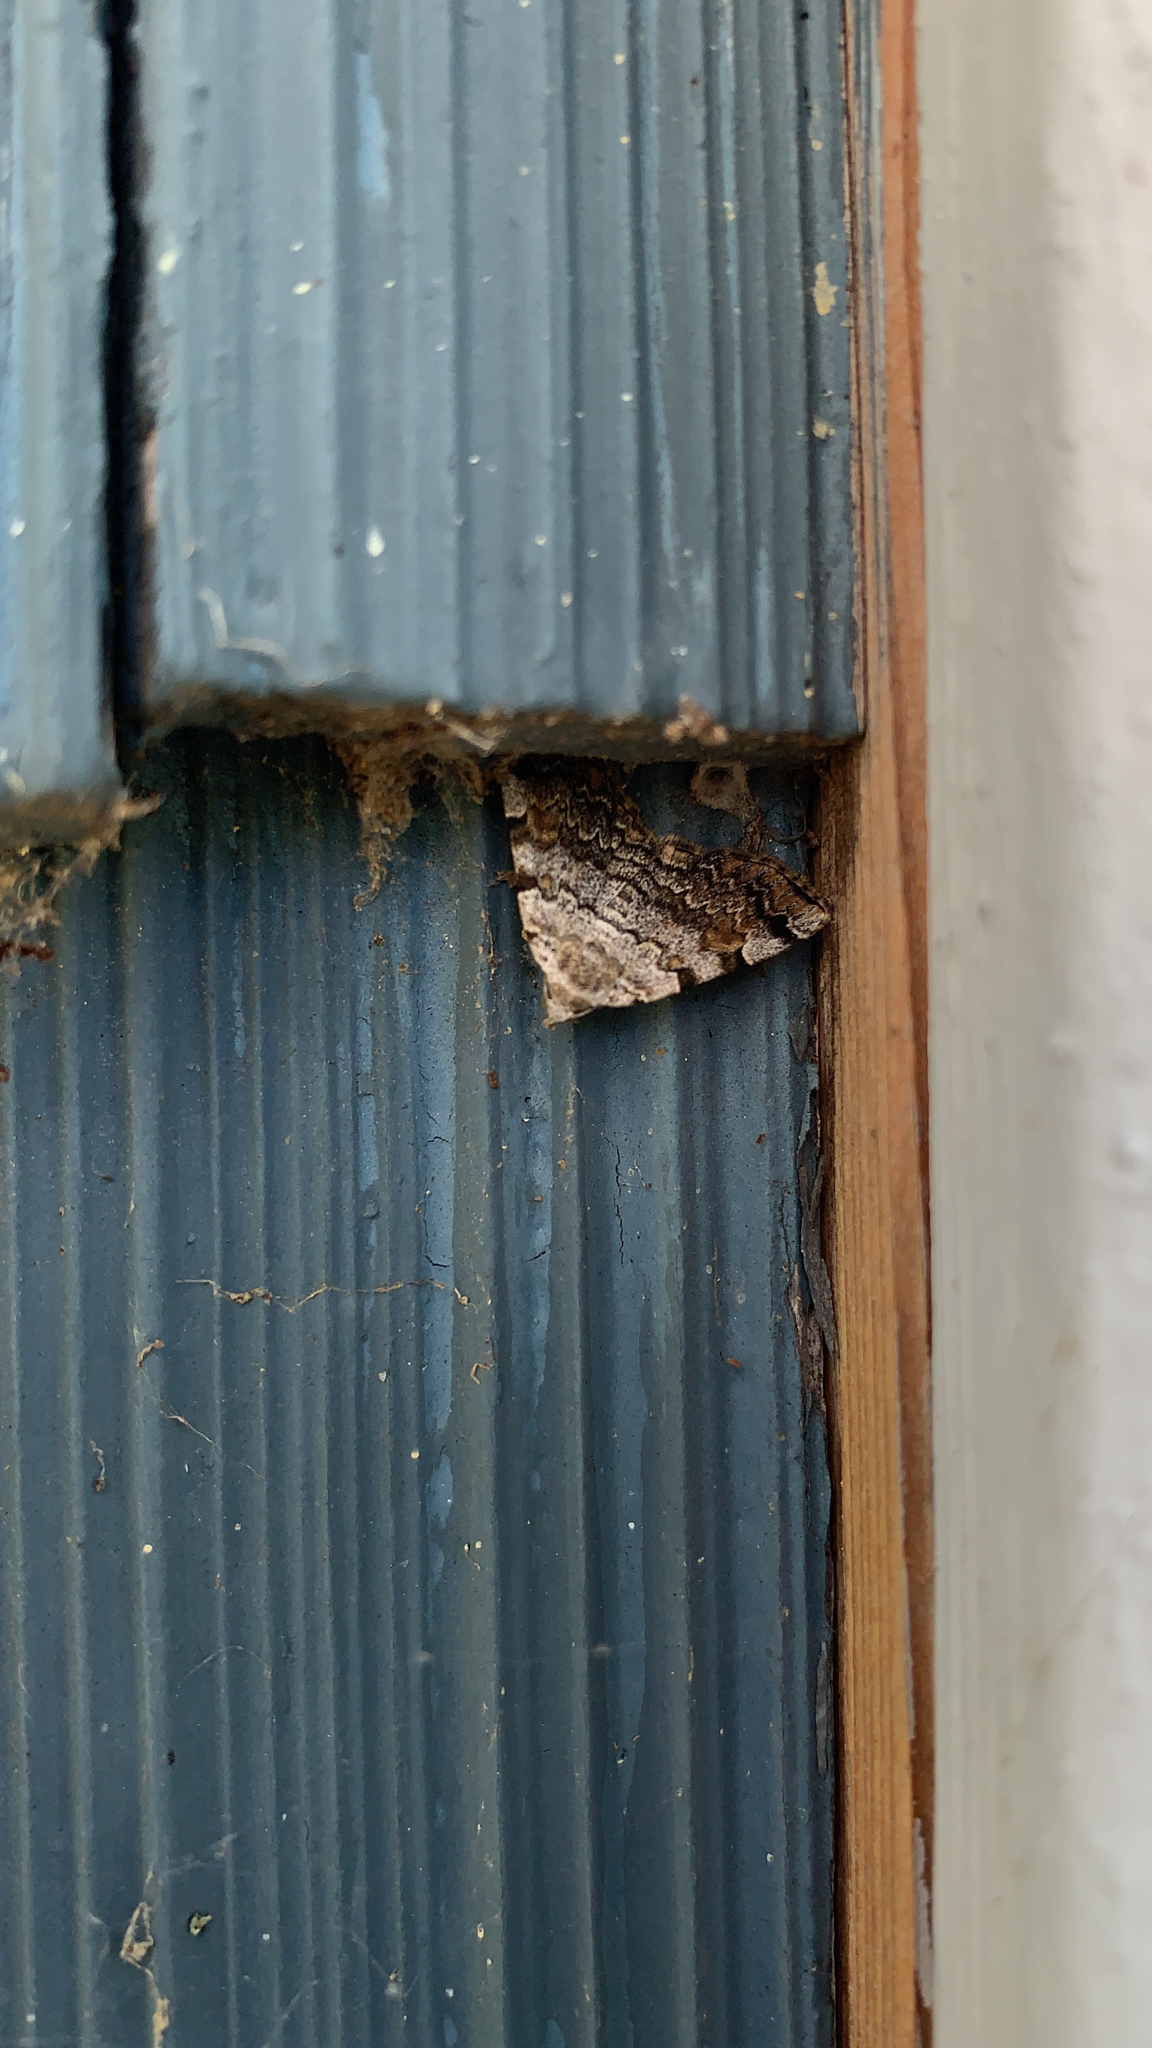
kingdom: Animalia
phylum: Arthropoda
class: Insecta
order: Lepidoptera
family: Erebidae
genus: Idia
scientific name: Idia americalis
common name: American idia moth
